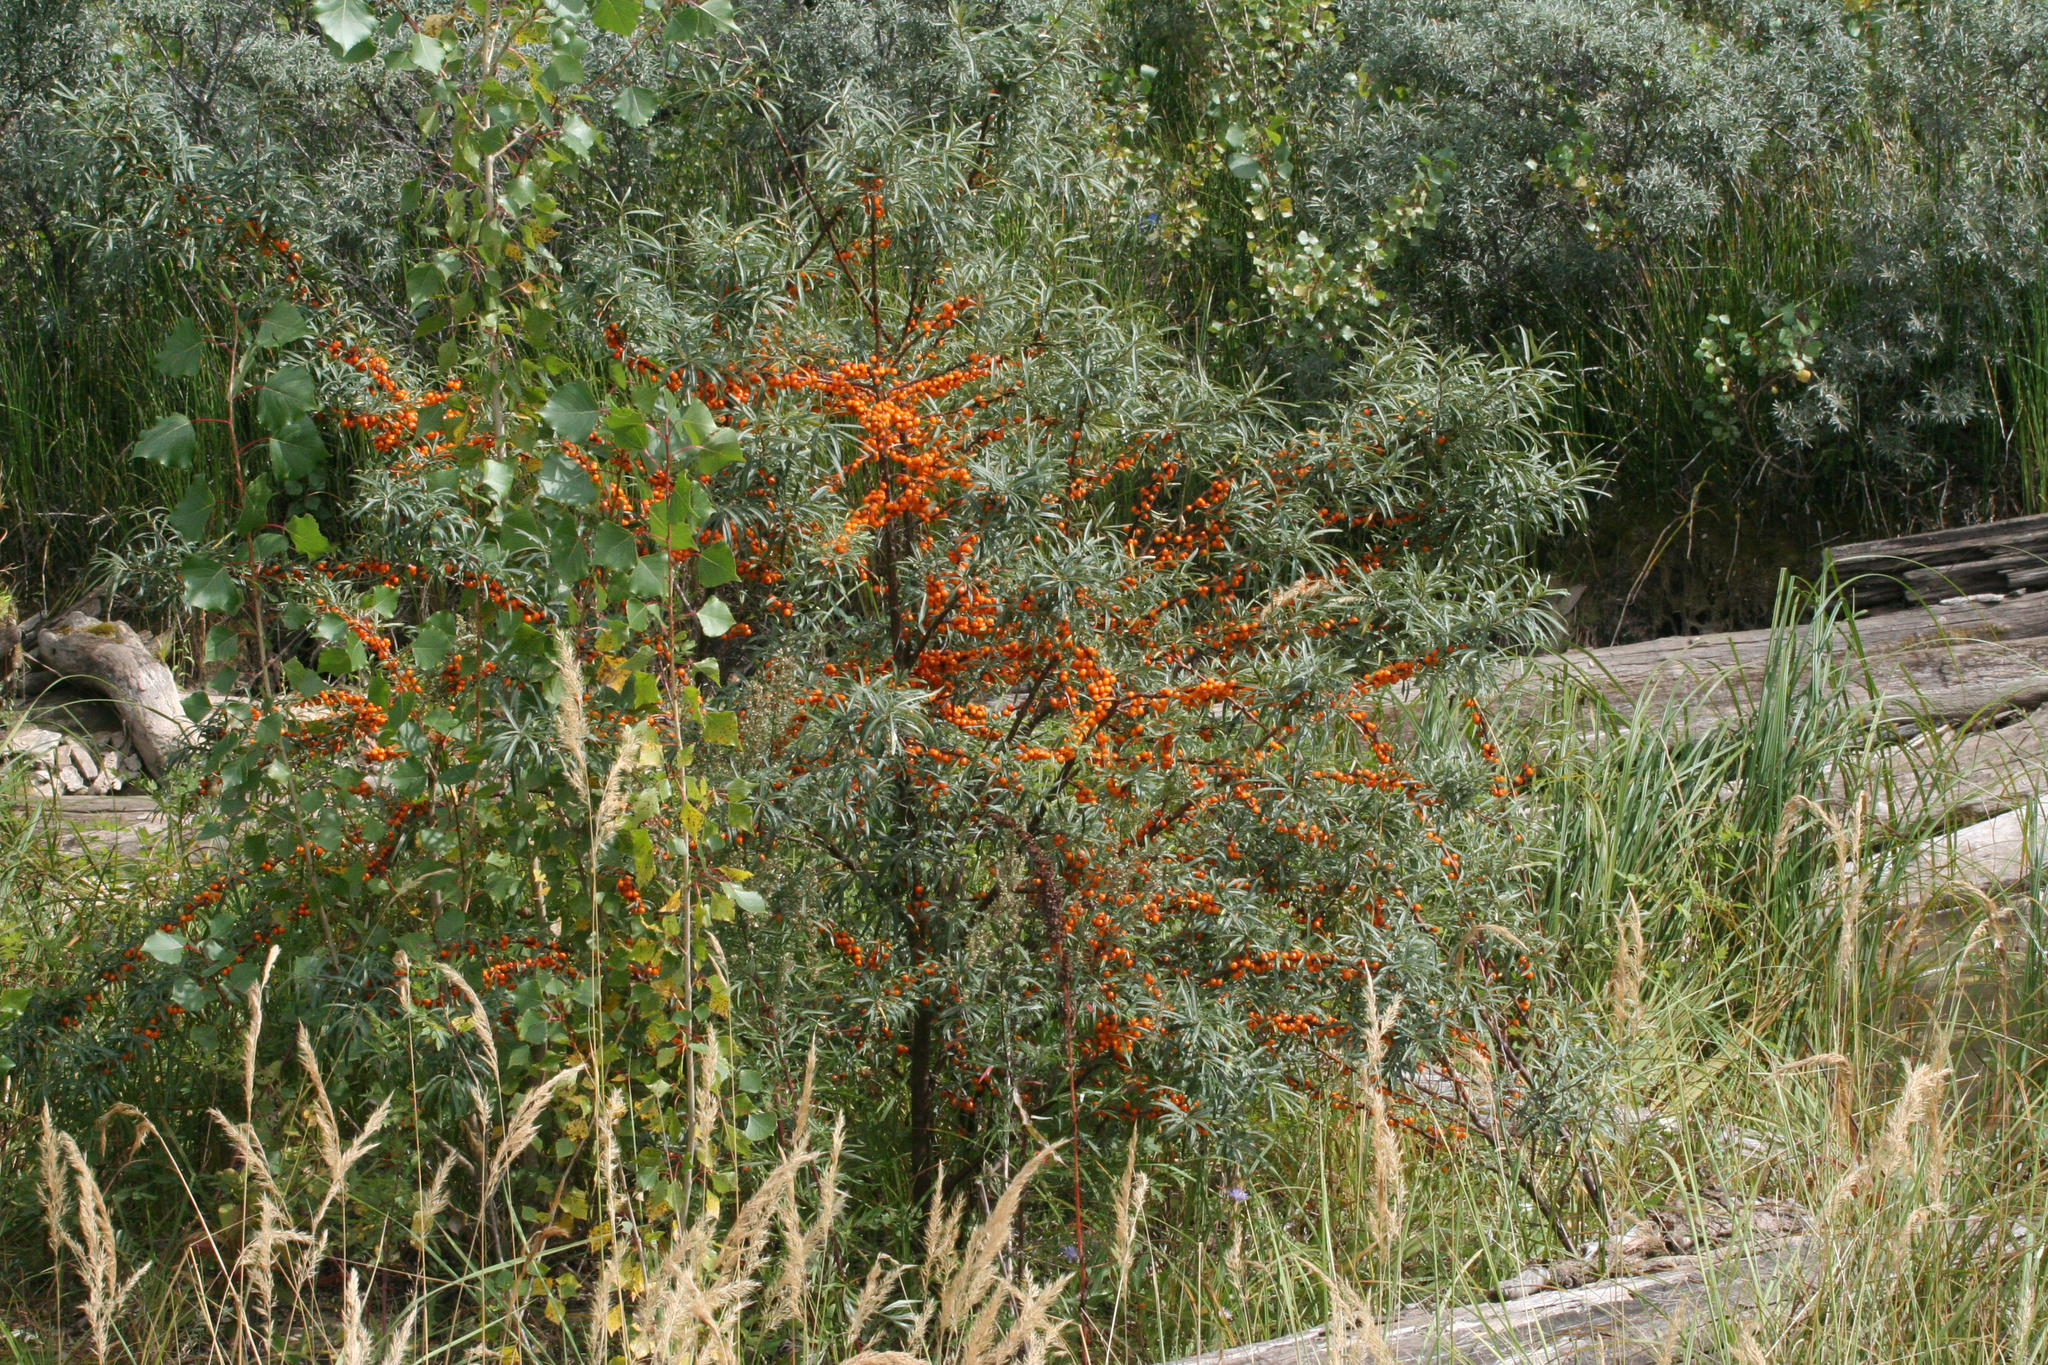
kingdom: Plantae
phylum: Tracheophyta
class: Magnoliopsida
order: Rosales
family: Elaeagnaceae
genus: Hippophae
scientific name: Hippophae rhamnoides
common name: Sea-buckthorn
